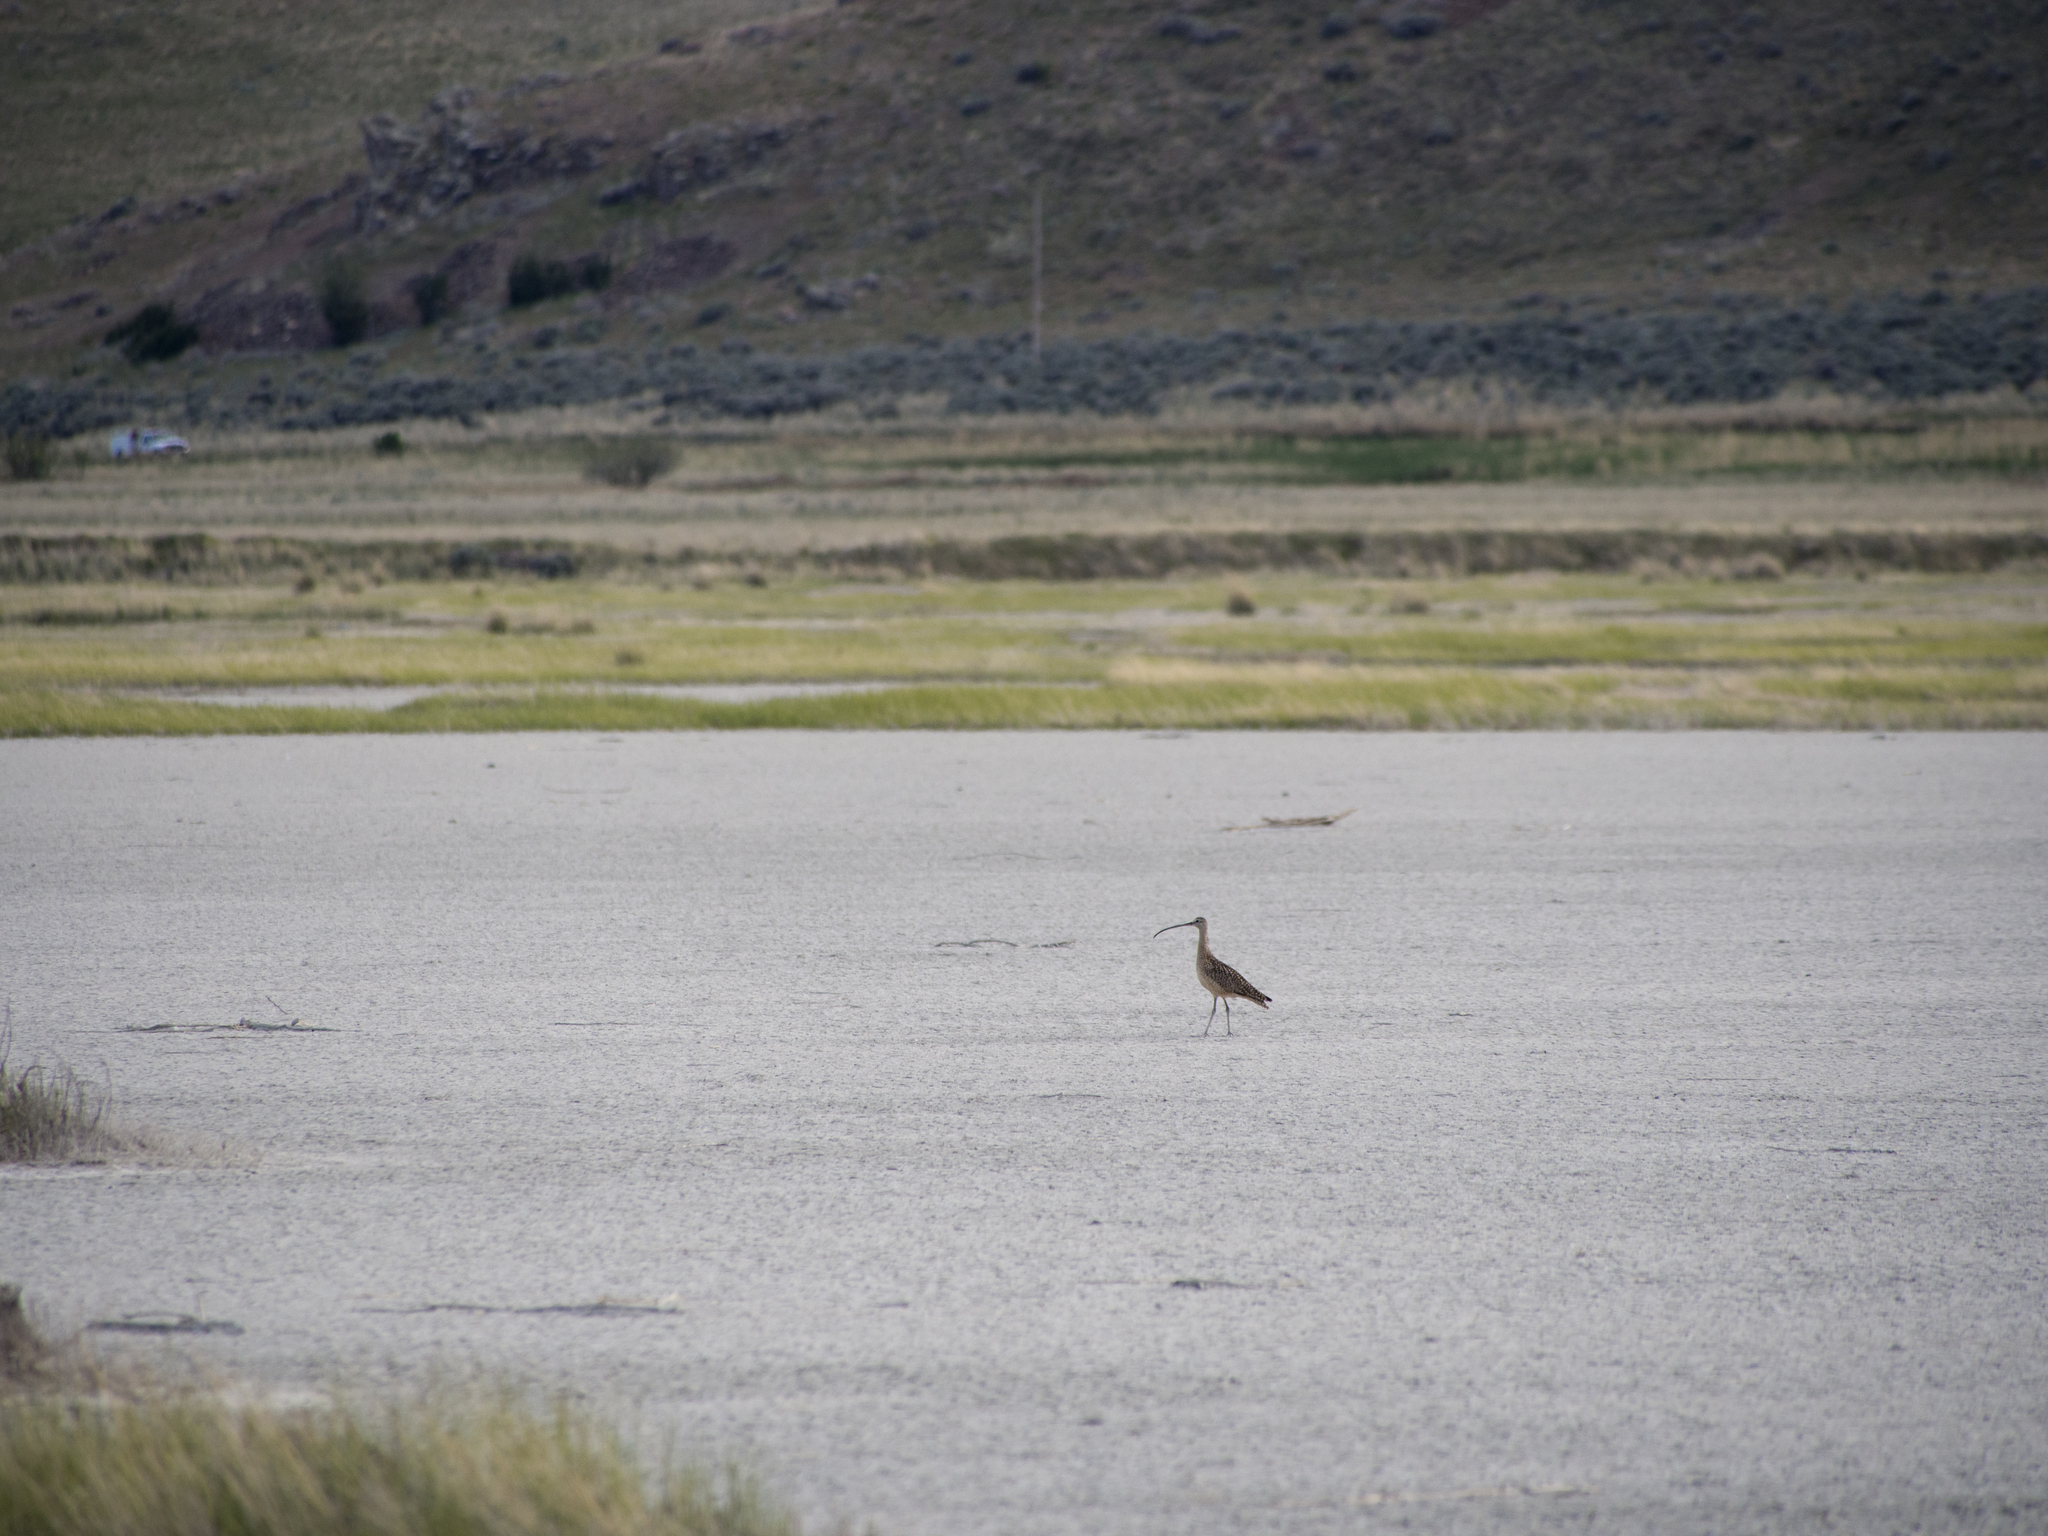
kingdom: Animalia
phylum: Chordata
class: Aves
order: Charadriiformes
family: Scolopacidae
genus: Numenius
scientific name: Numenius americanus
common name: Long-billed curlew
